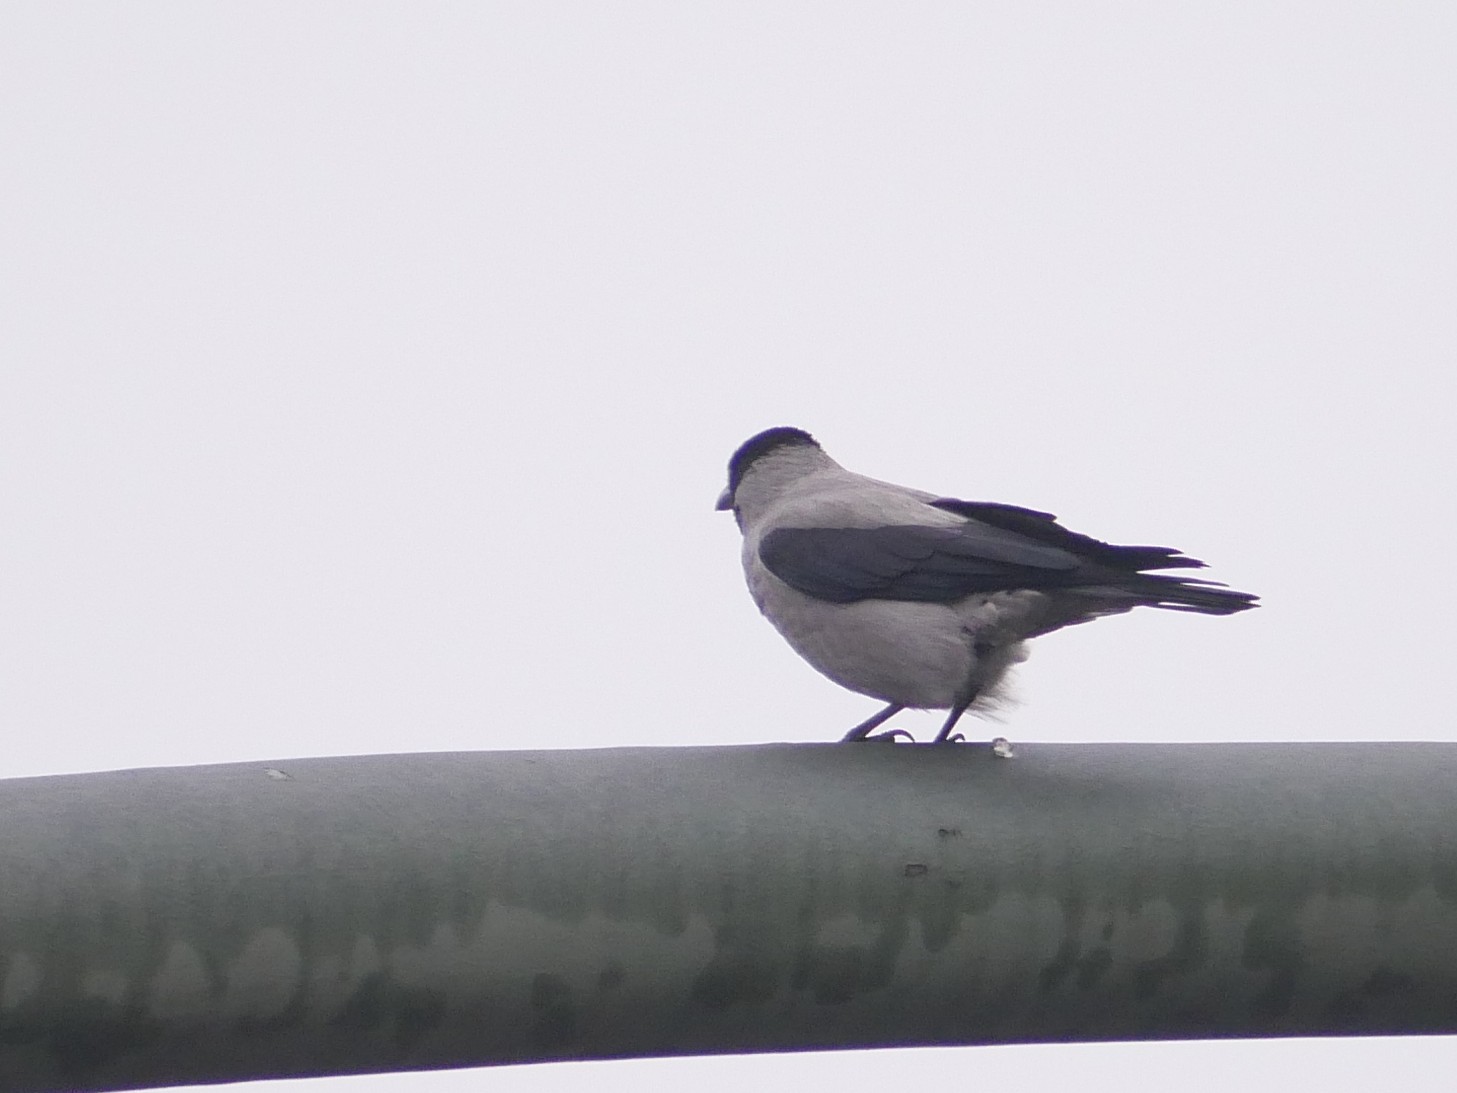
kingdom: Animalia
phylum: Chordata
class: Aves
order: Passeriformes
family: Corvidae
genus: Corvus
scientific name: Corvus cornix
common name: Hooded crow
